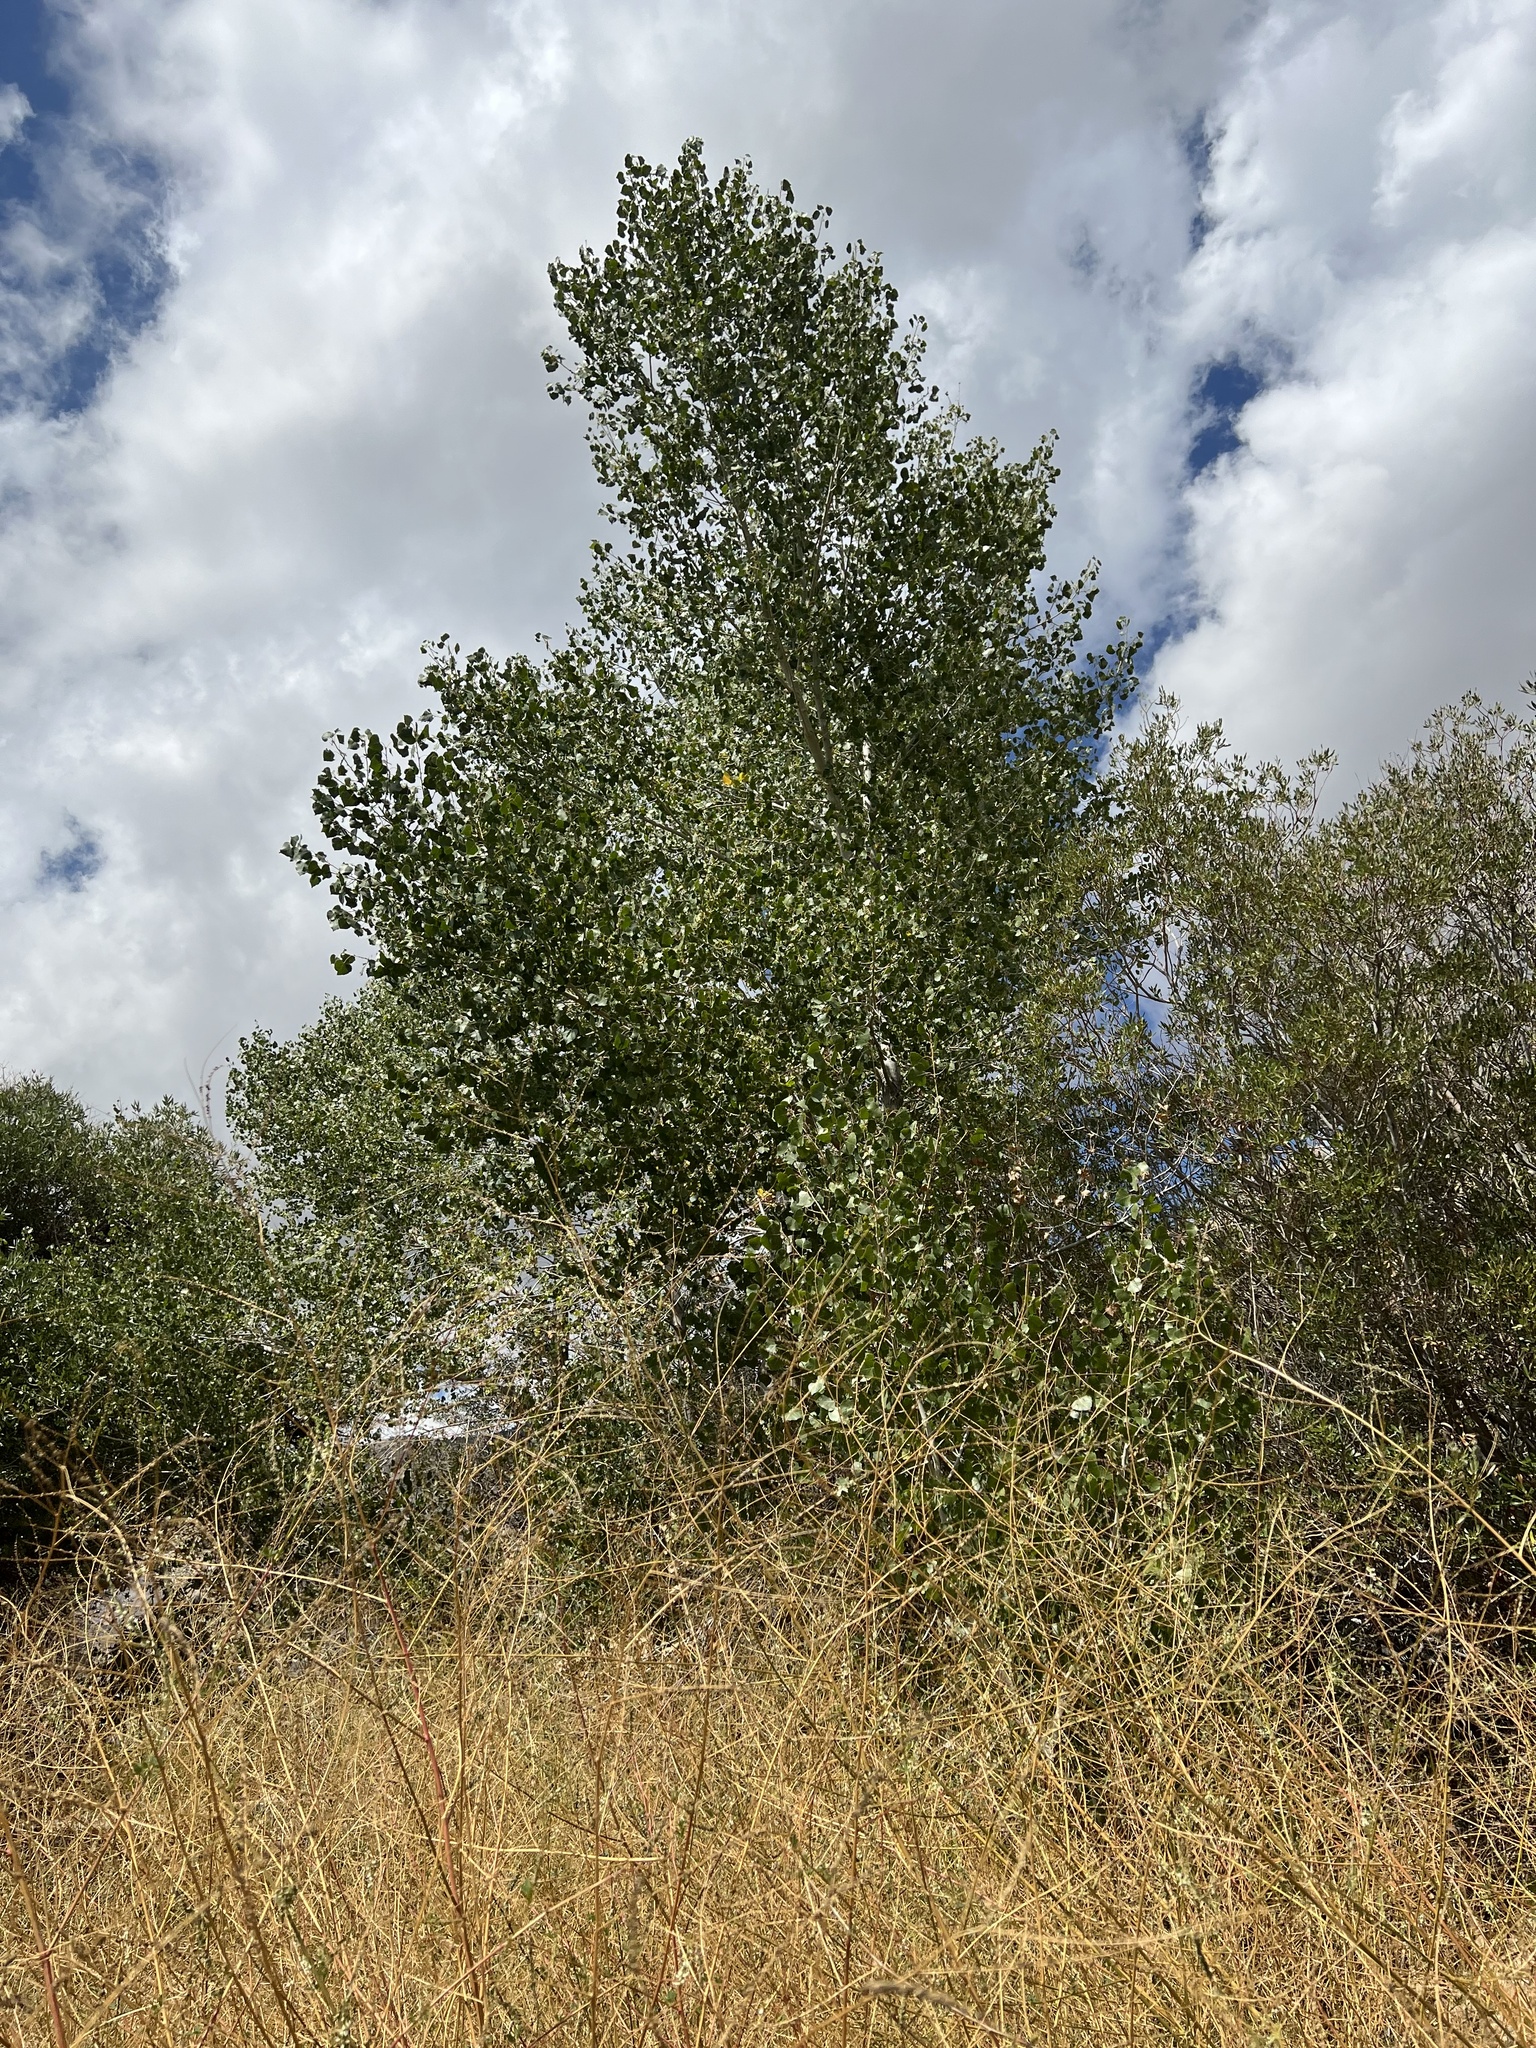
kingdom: Plantae
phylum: Tracheophyta
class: Magnoliopsida
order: Malpighiales
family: Salicaceae
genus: Populus
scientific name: Populus fremontii
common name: Fremont's cottonwood
